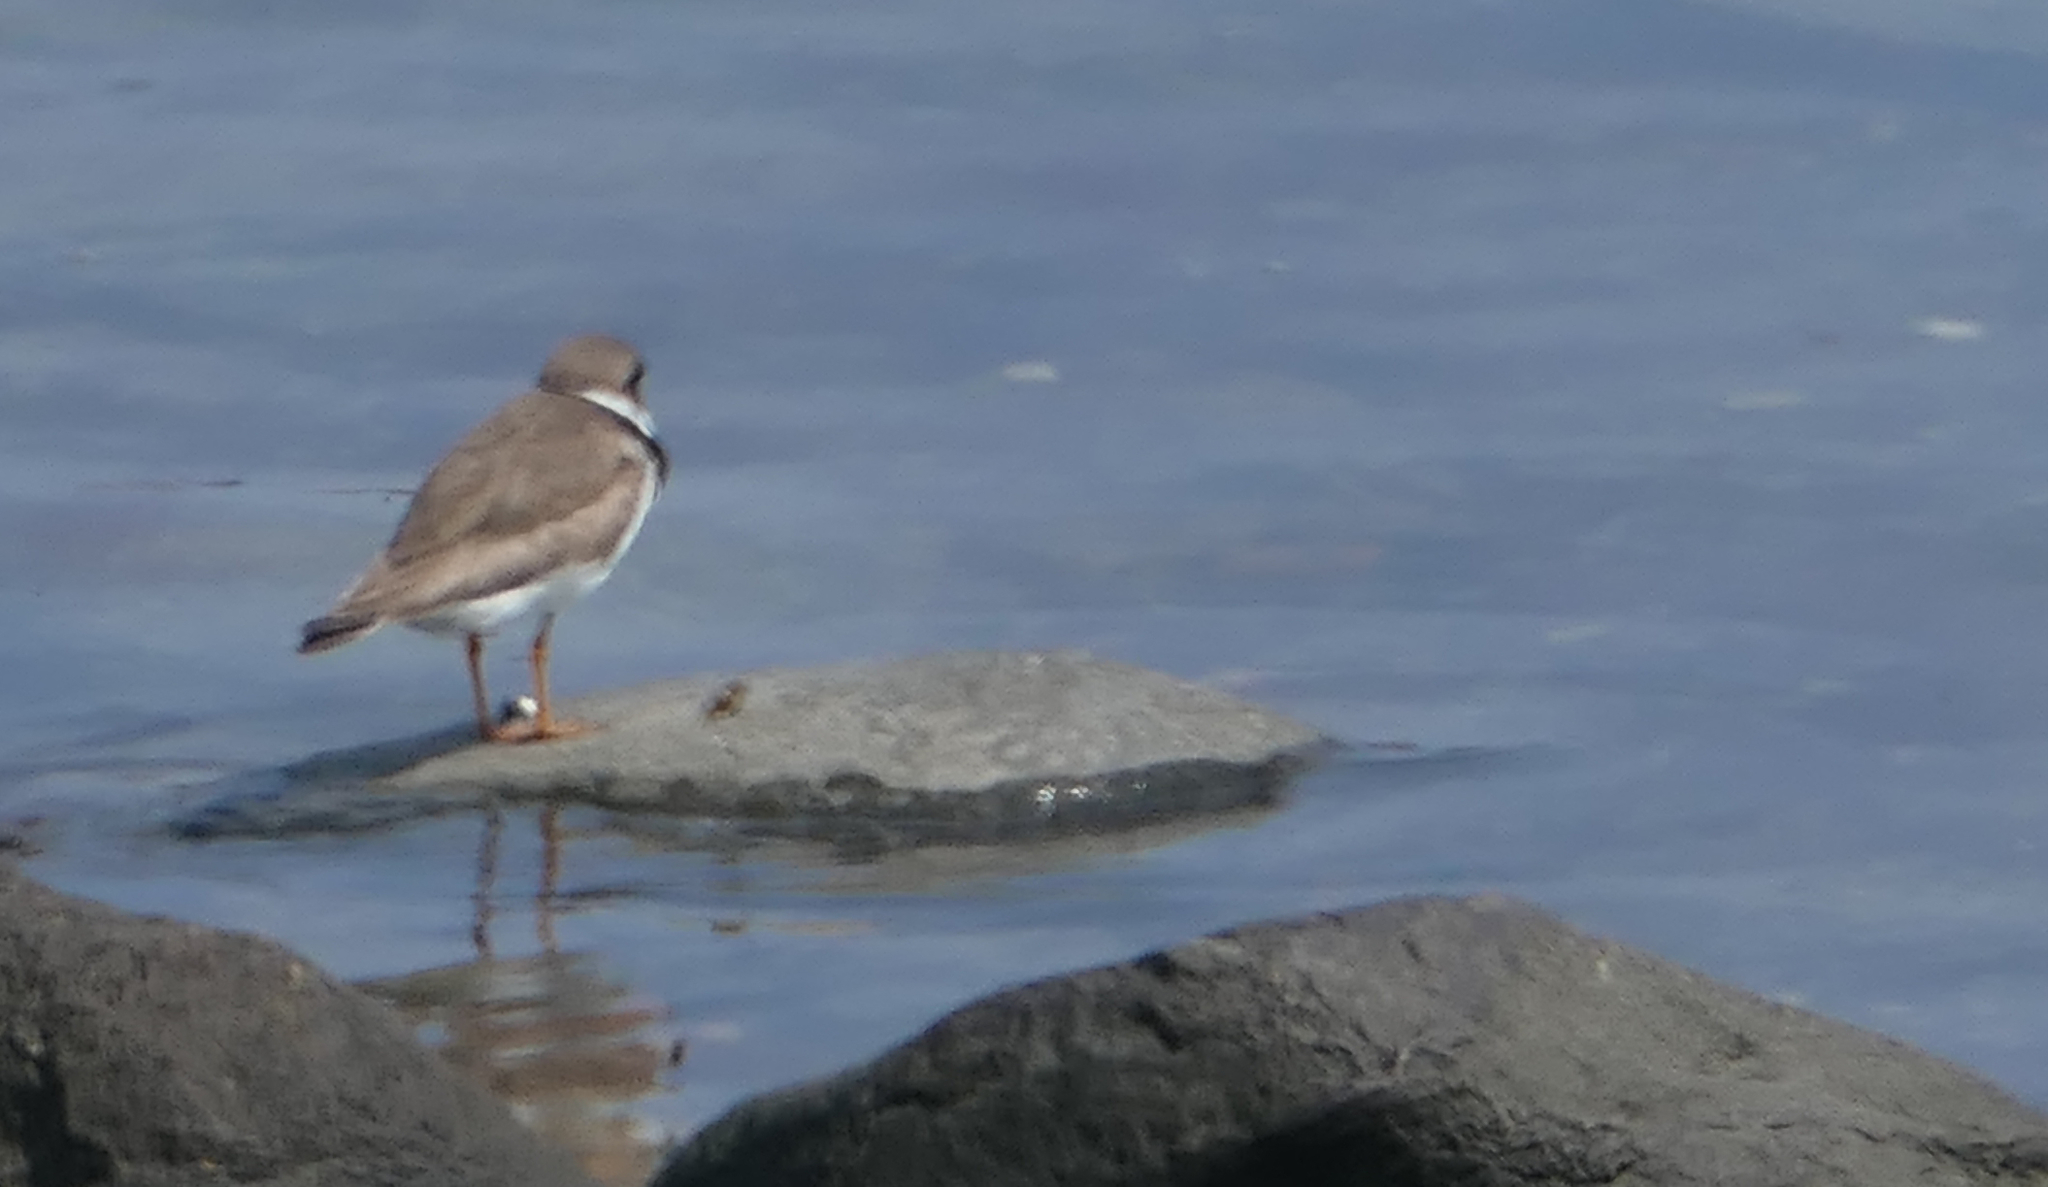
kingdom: Animalia
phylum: Chordata
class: Aves
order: Charadriiformes
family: Charadriidae
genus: Charadrius
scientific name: Charadrius semipalmatus
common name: Semipalmated plover
